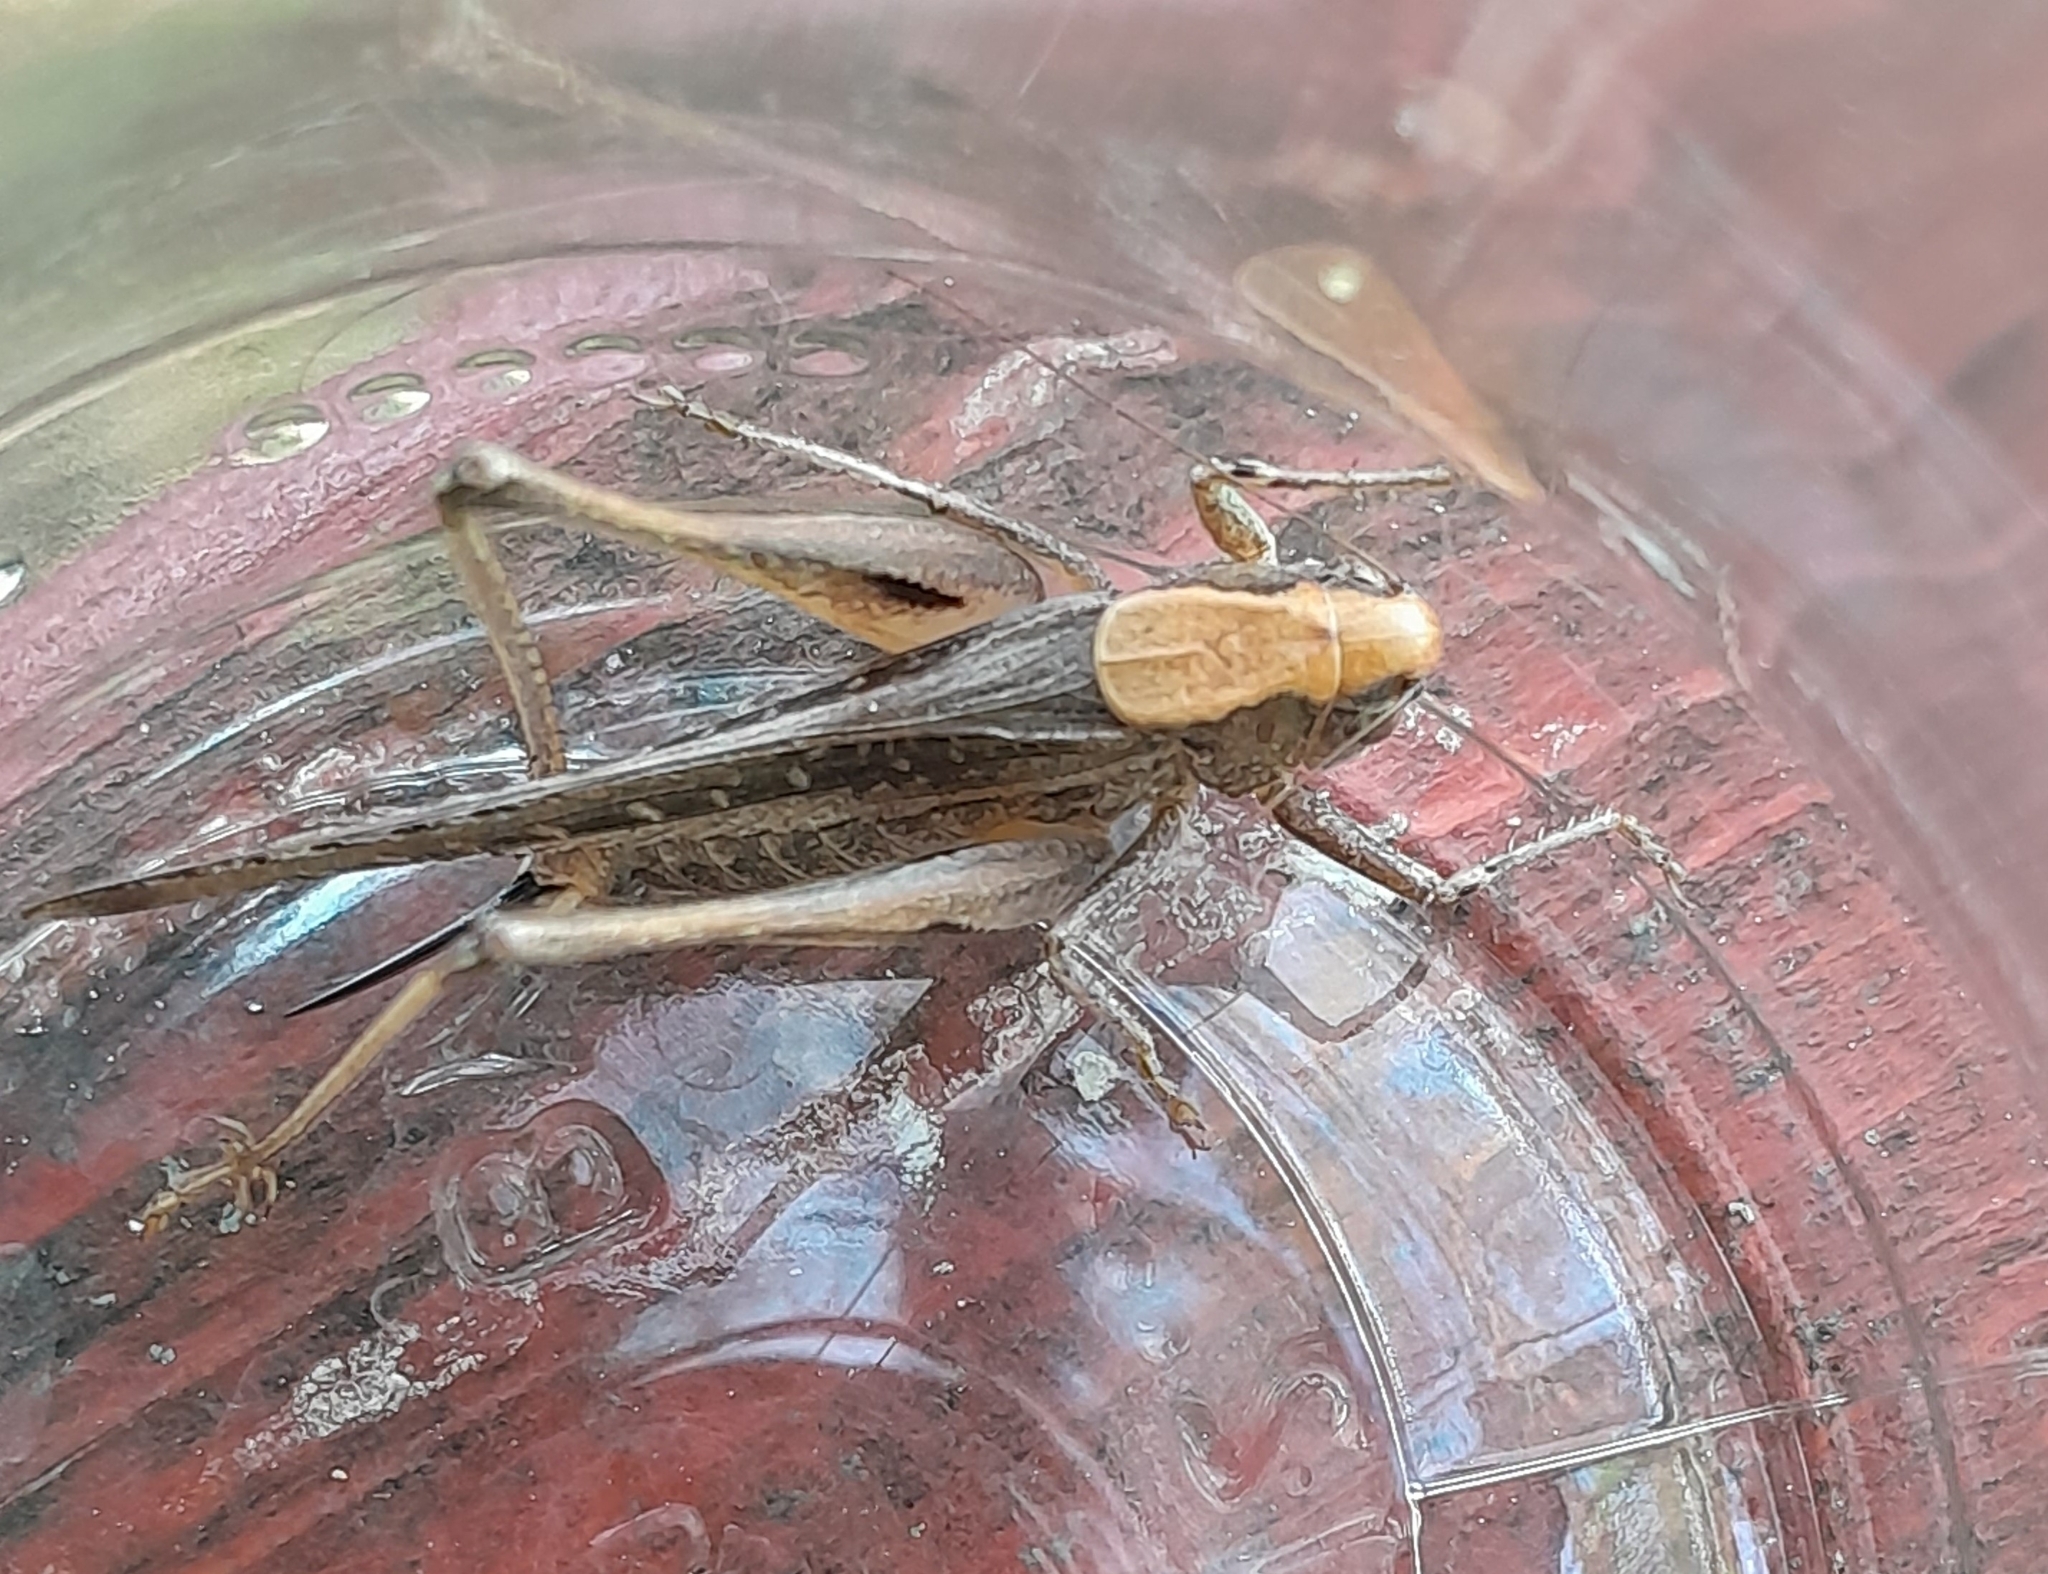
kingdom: Animalia
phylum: Arthropoda
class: Insecta
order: Orthoptera
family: Tettigoniidae
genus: Platycleis
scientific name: Platycleis grisea
